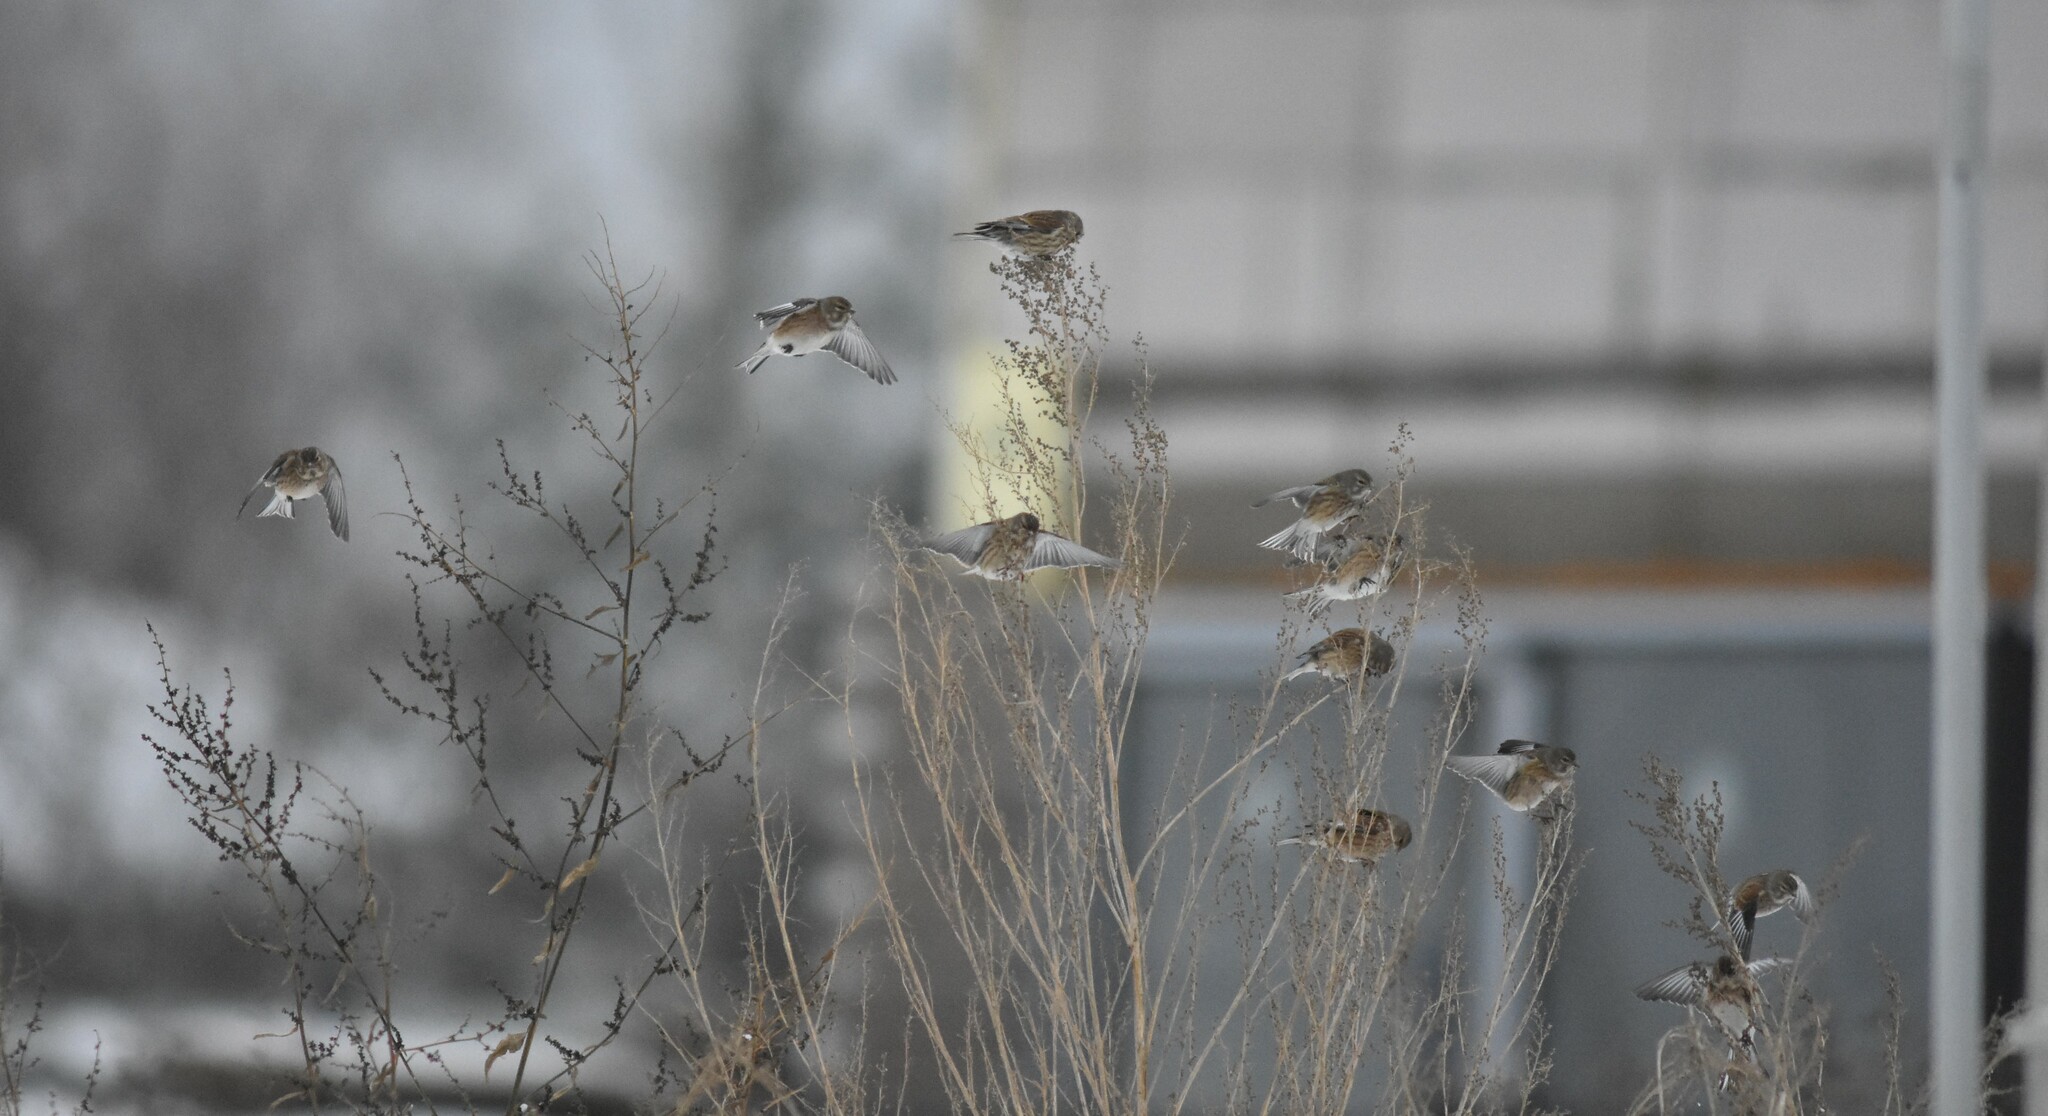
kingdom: Animalia
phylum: Chordata
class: Aves
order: Passeriformes
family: Fringillidae
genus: Linaria
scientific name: Linaria cannabina
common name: Common linnet
